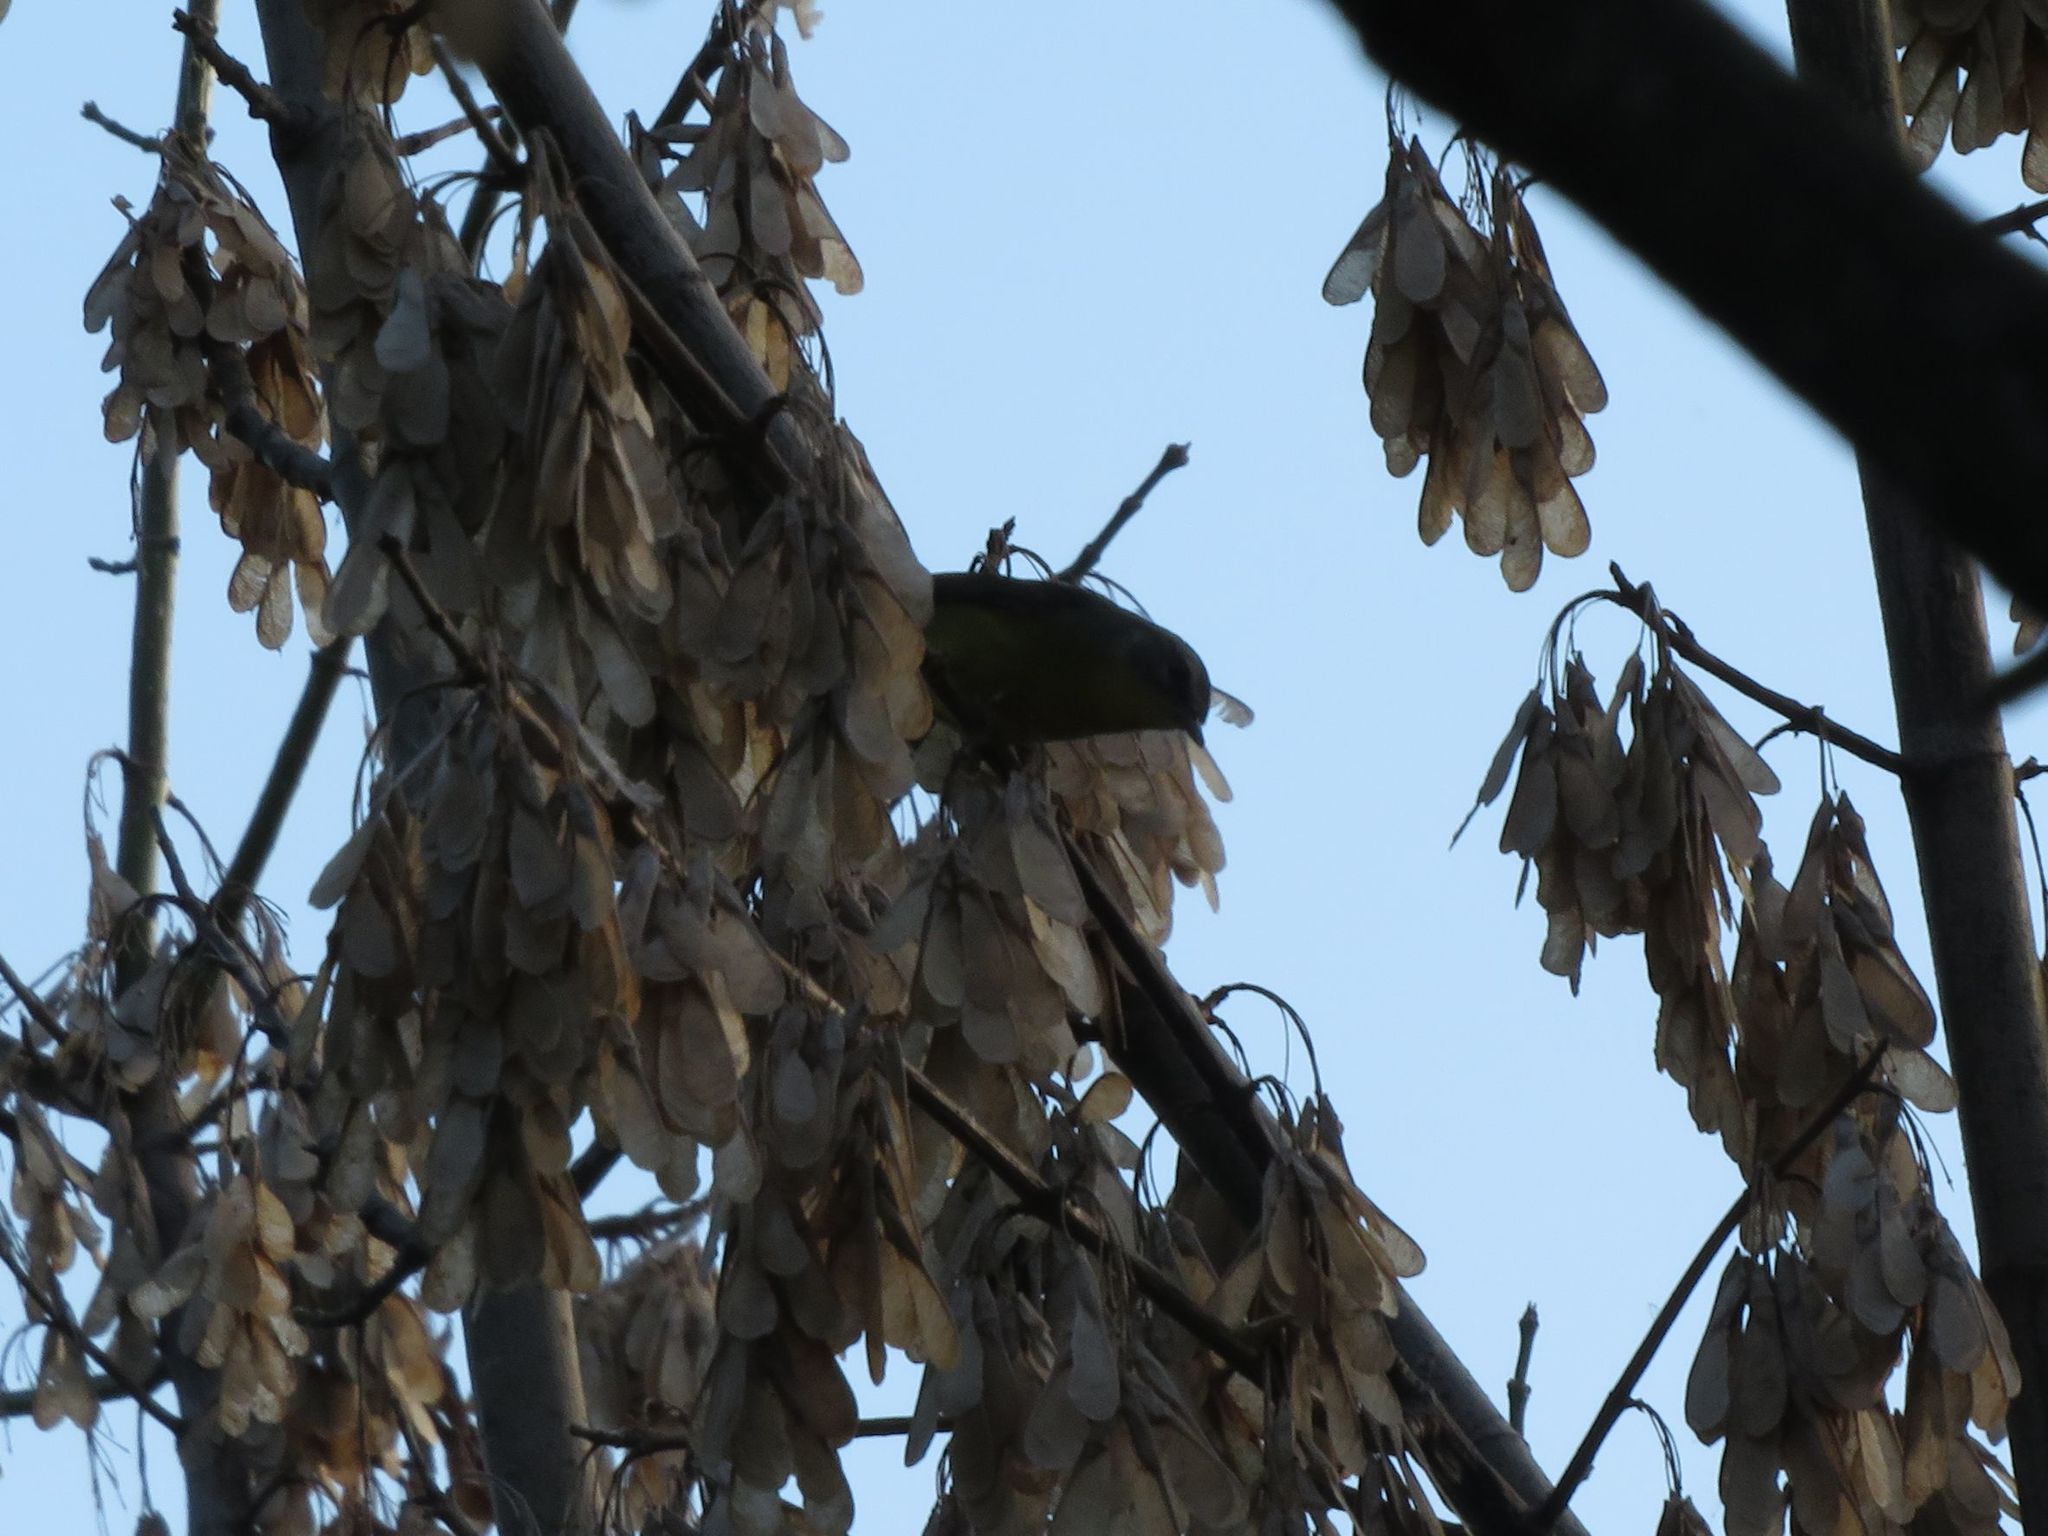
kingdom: Animalia
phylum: Chordata
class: Aves
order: Passeriformes
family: Parulidae
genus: Basileuterus
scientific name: Basileuterus culicivorus
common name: Golden-crowned warbler
